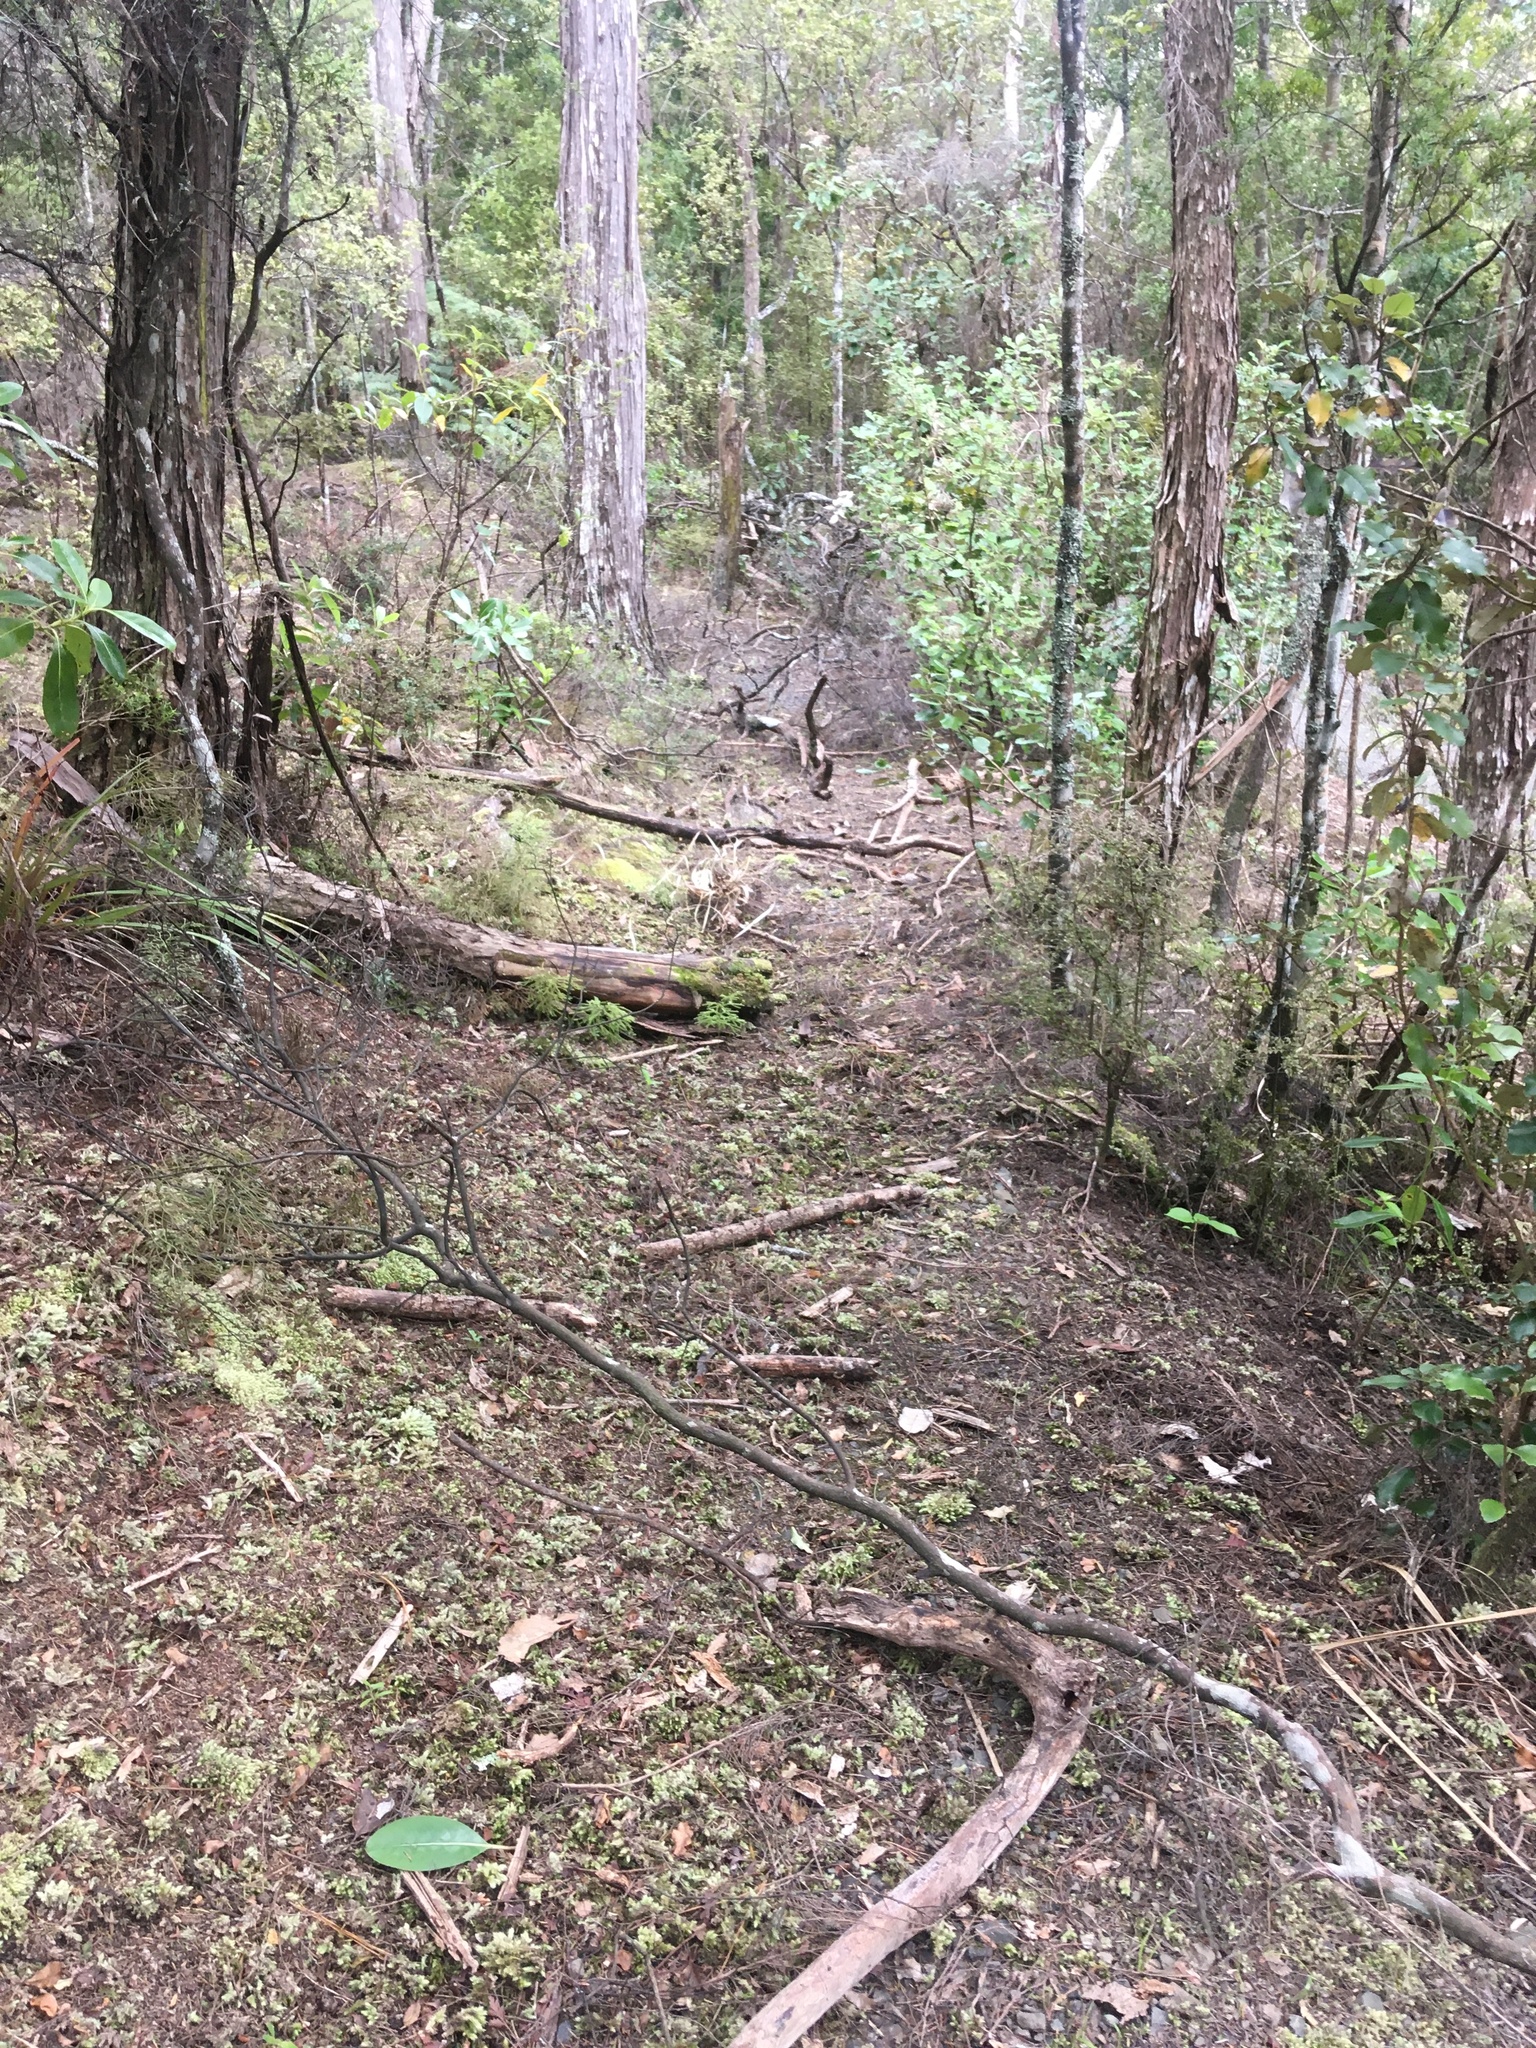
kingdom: Plantae
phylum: Bryophyta
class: Bryopsida
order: Dicranales
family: Leucobryaceae
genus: Leucobryum
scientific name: Leucobryum javense
